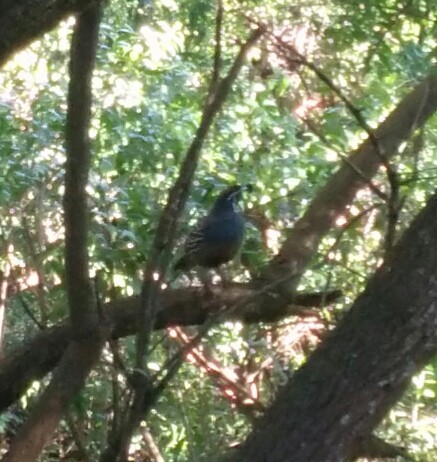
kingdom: Animalia
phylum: Chordata
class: Aves
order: Galliformes
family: Odontophoridae
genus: Callipepla
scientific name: Callipepla californica
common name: California quail
